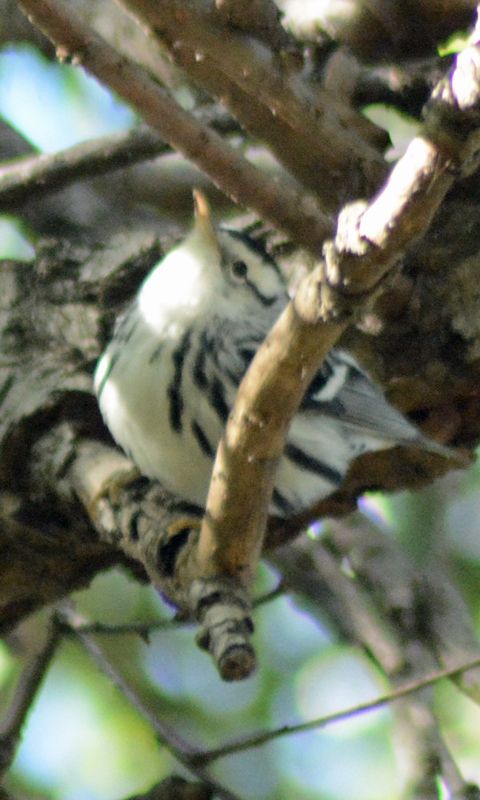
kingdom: Animalia
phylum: Chordata
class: Aves
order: Passeriformes
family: Parulidae
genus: Mniotilta
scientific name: Mniotilta varia
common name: Black-and-white warbler
